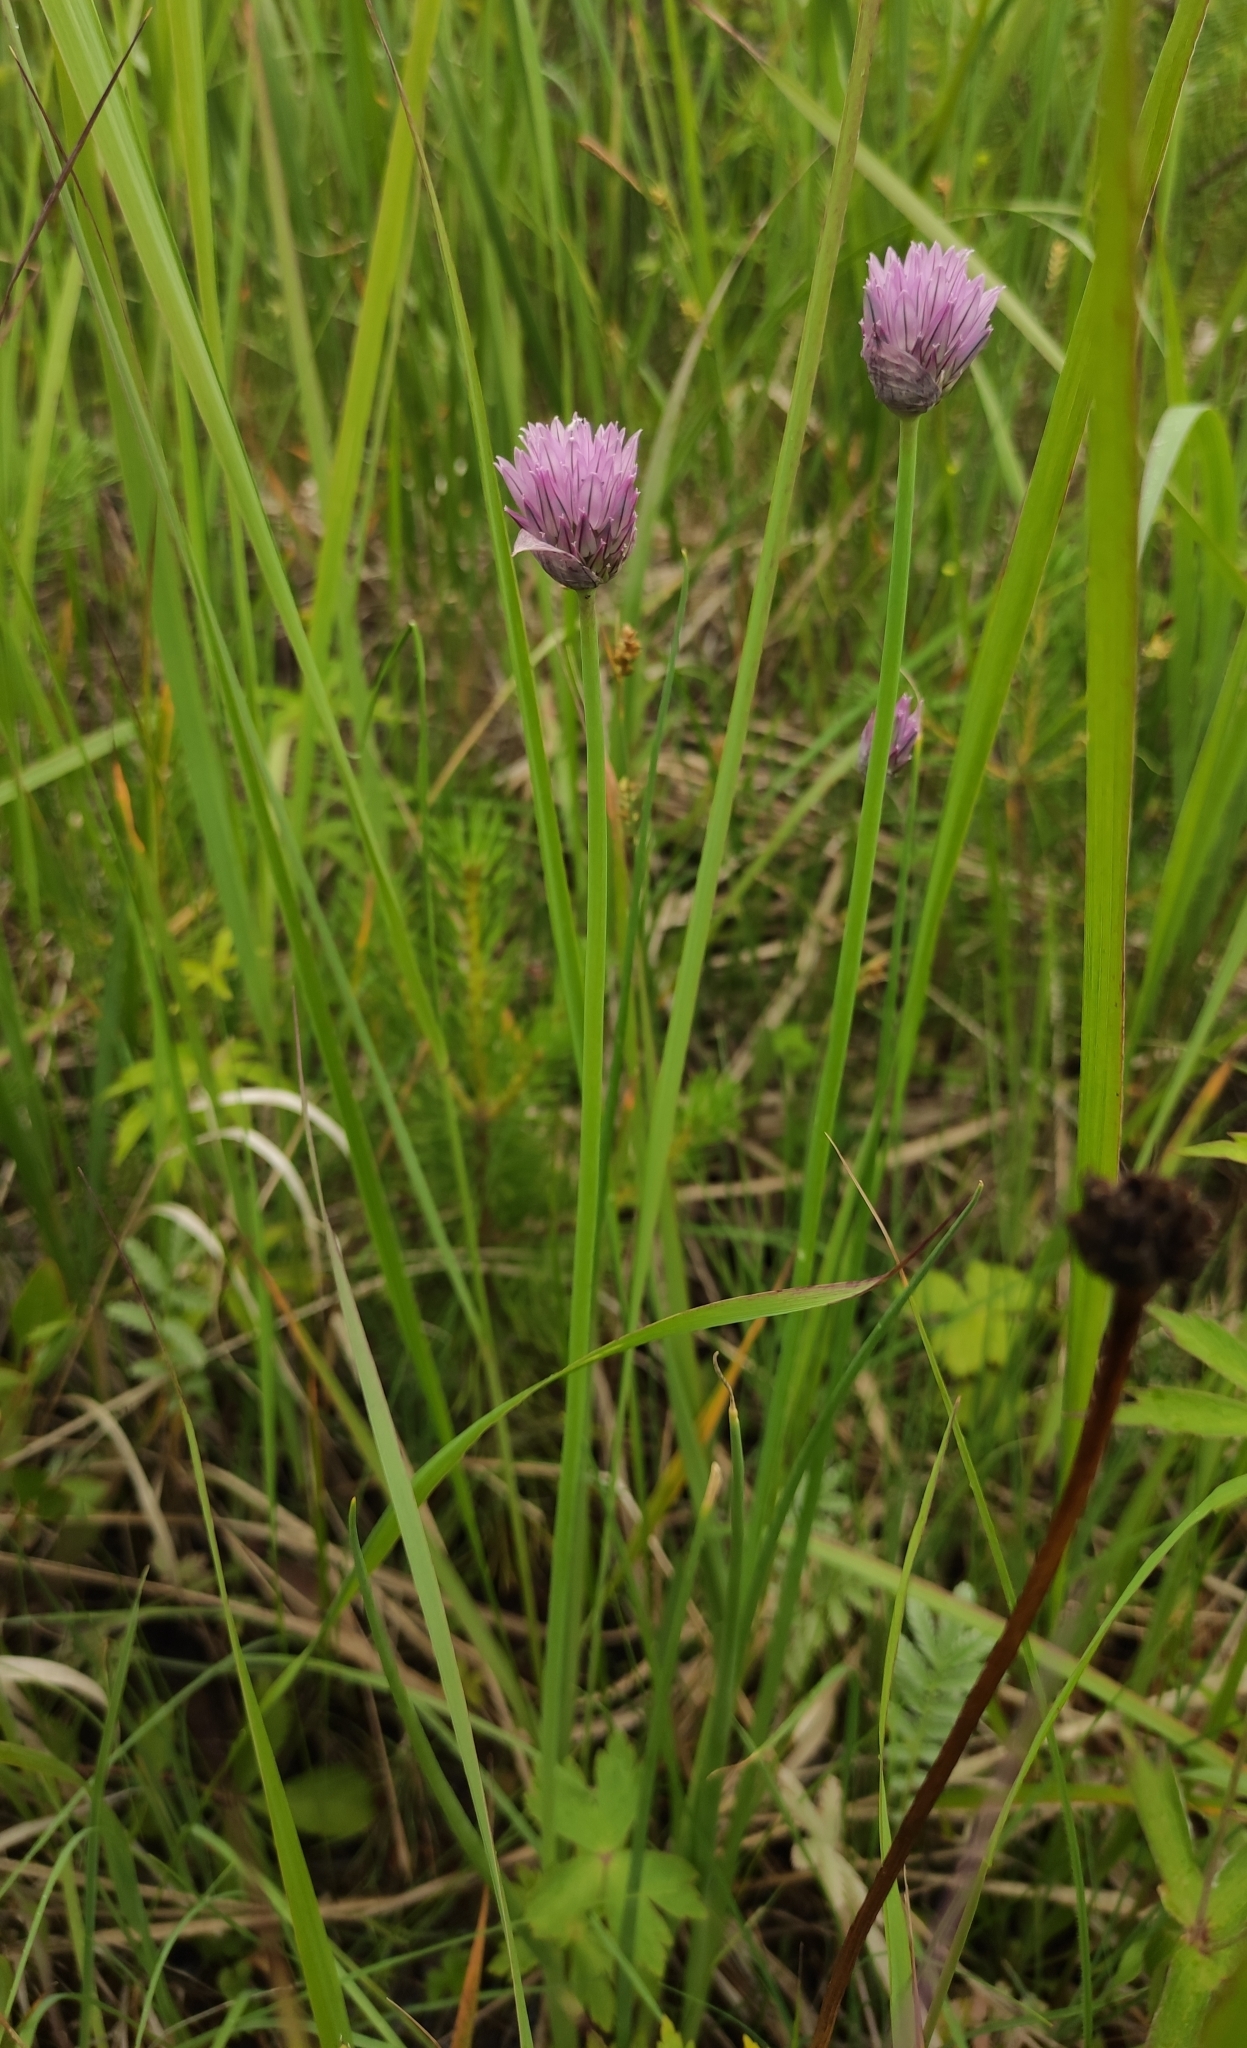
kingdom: Plantae
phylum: Tracheophyta
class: Liliopsida
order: Asparagales
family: Amaryllidaceae
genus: Allium
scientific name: Allium schoenoprasum
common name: Chives
